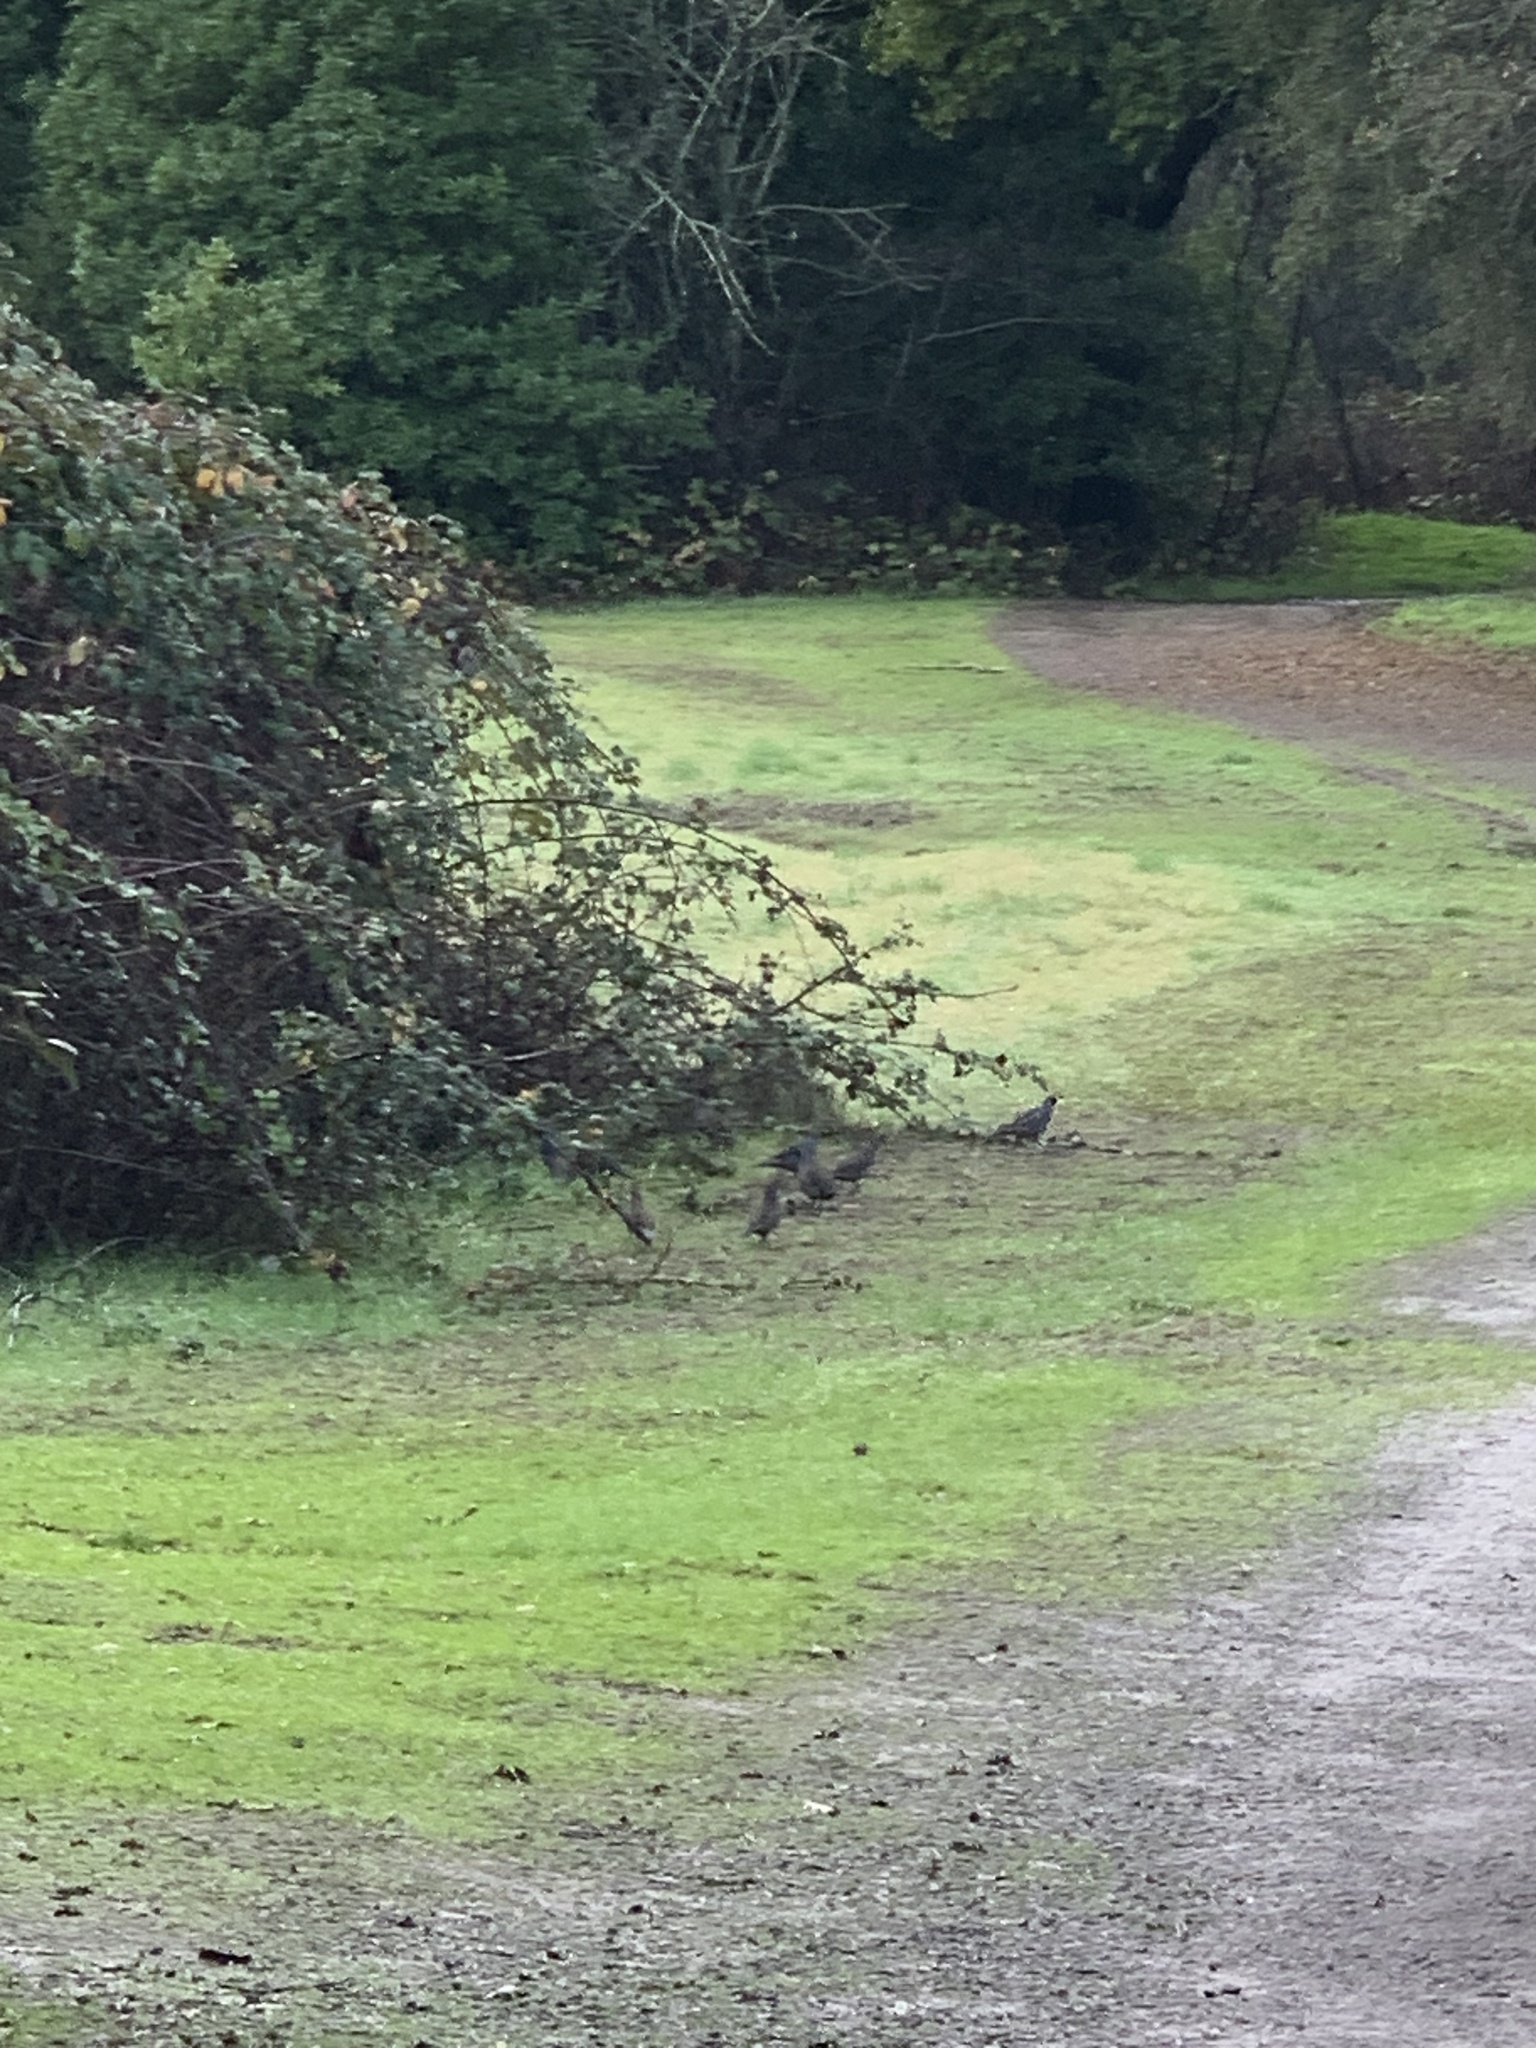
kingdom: Animalia
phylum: Chordata
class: Aves
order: Galliformes
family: Odontophoridae
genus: Callipepla
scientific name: Callipepla californica
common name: California quail
